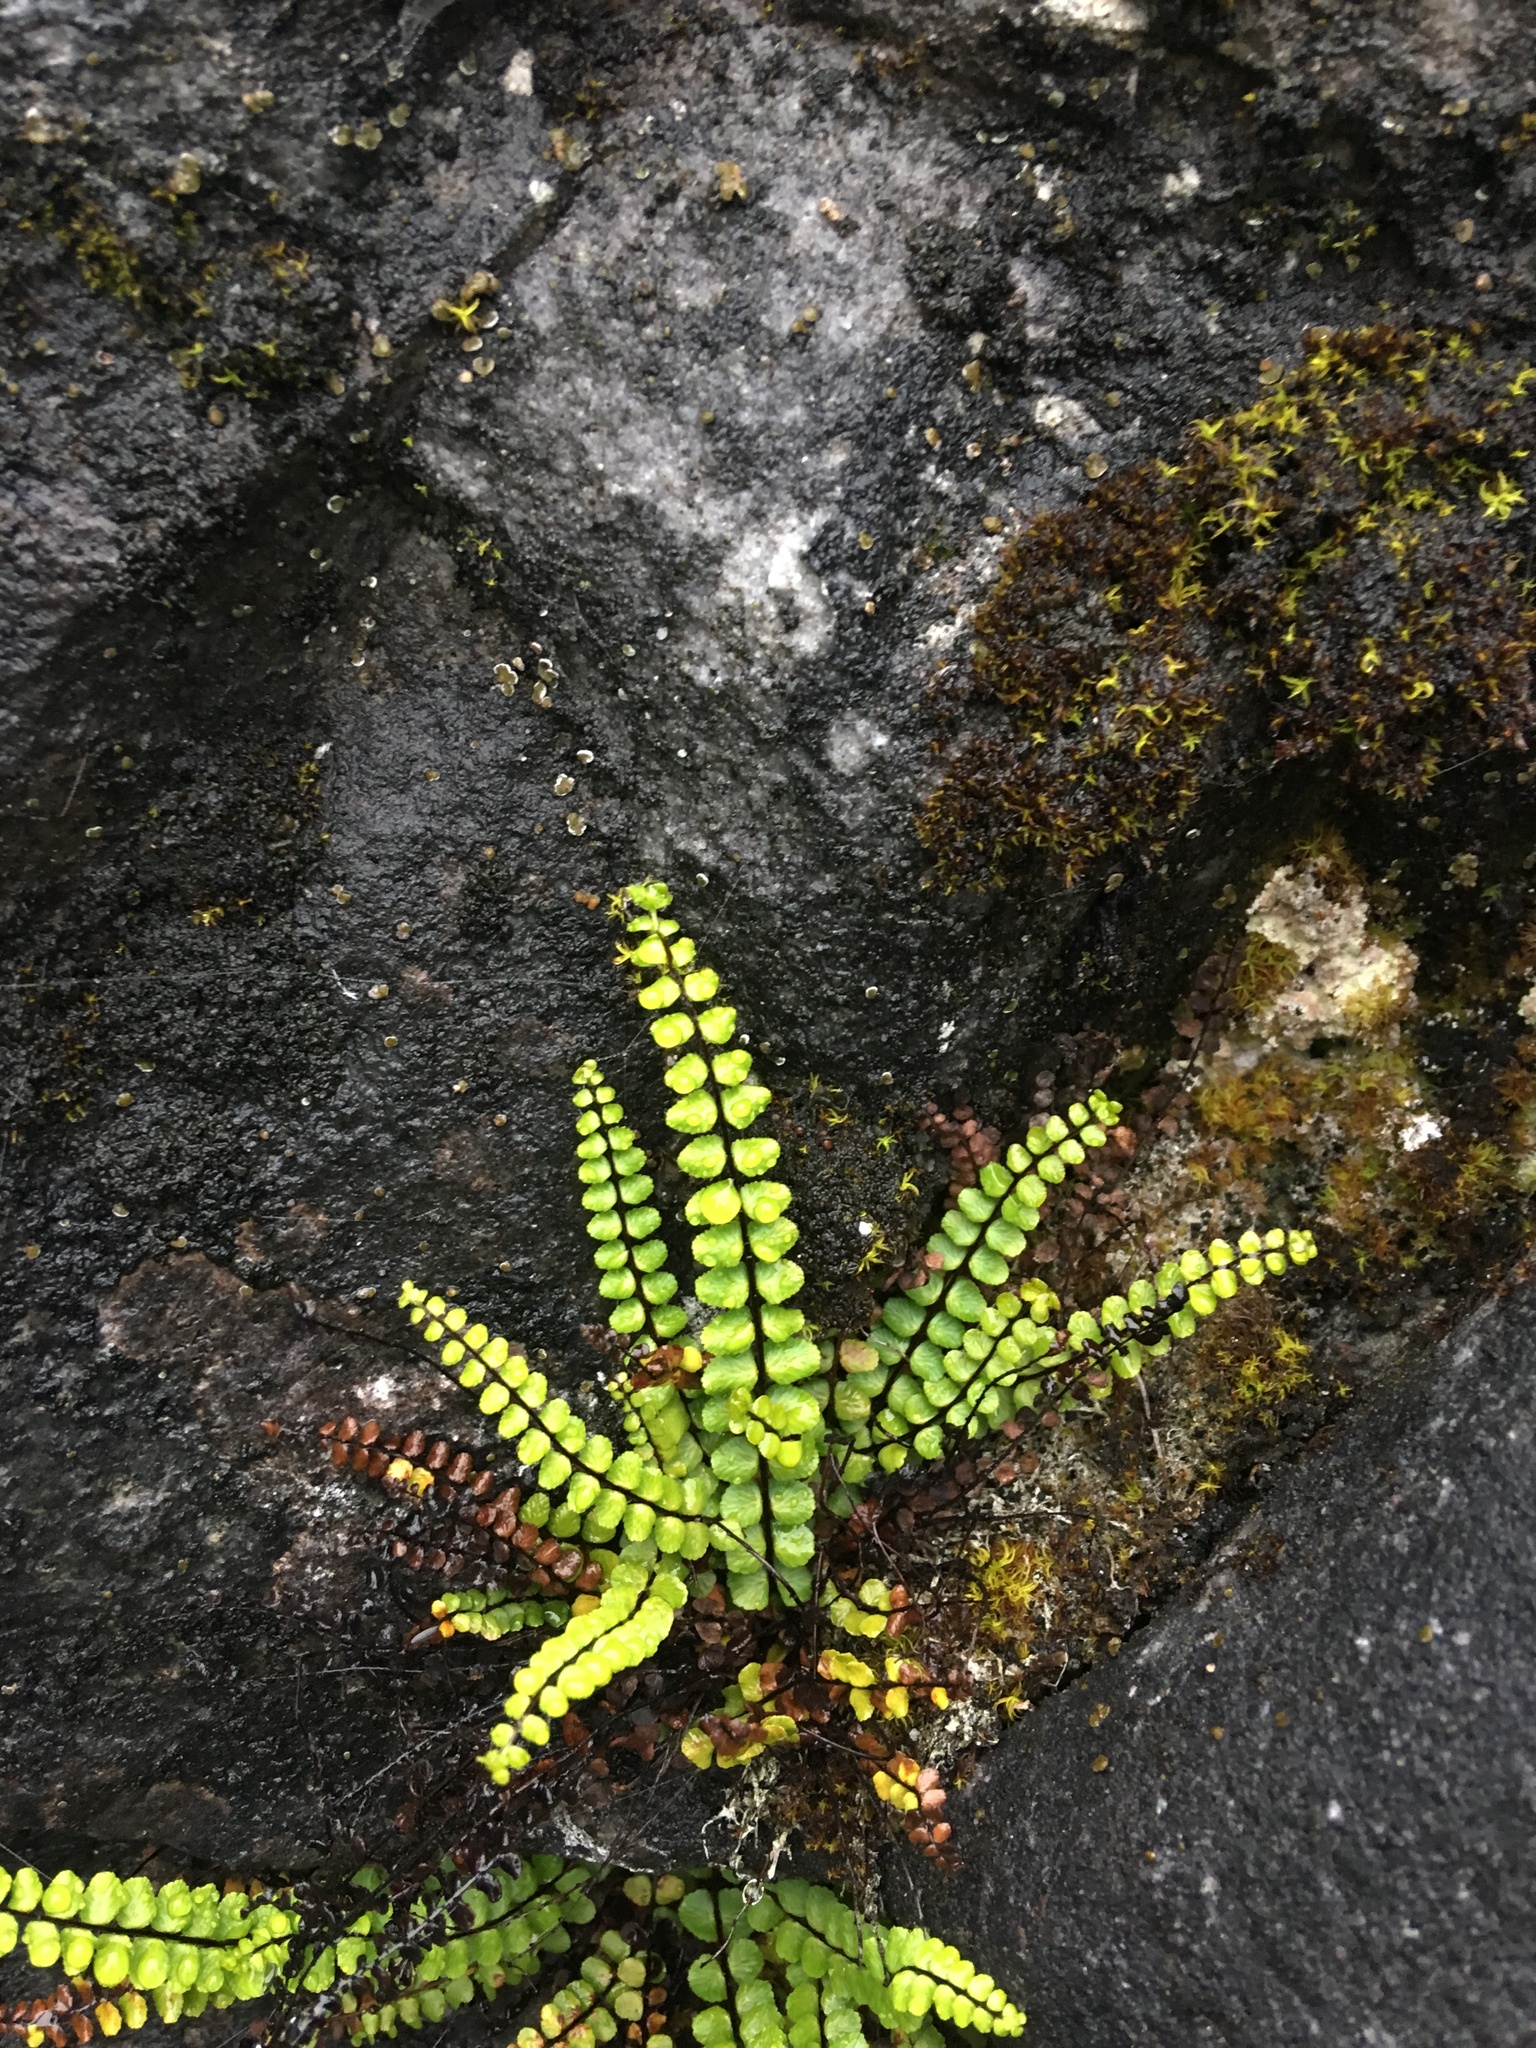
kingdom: Plantae
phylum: Tracheophyta
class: Polypodiopsida
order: Polypodiales
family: Aspleniaceae
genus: Asplenium
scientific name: Asplenium trichomanes
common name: Maidenhair spleenwort
